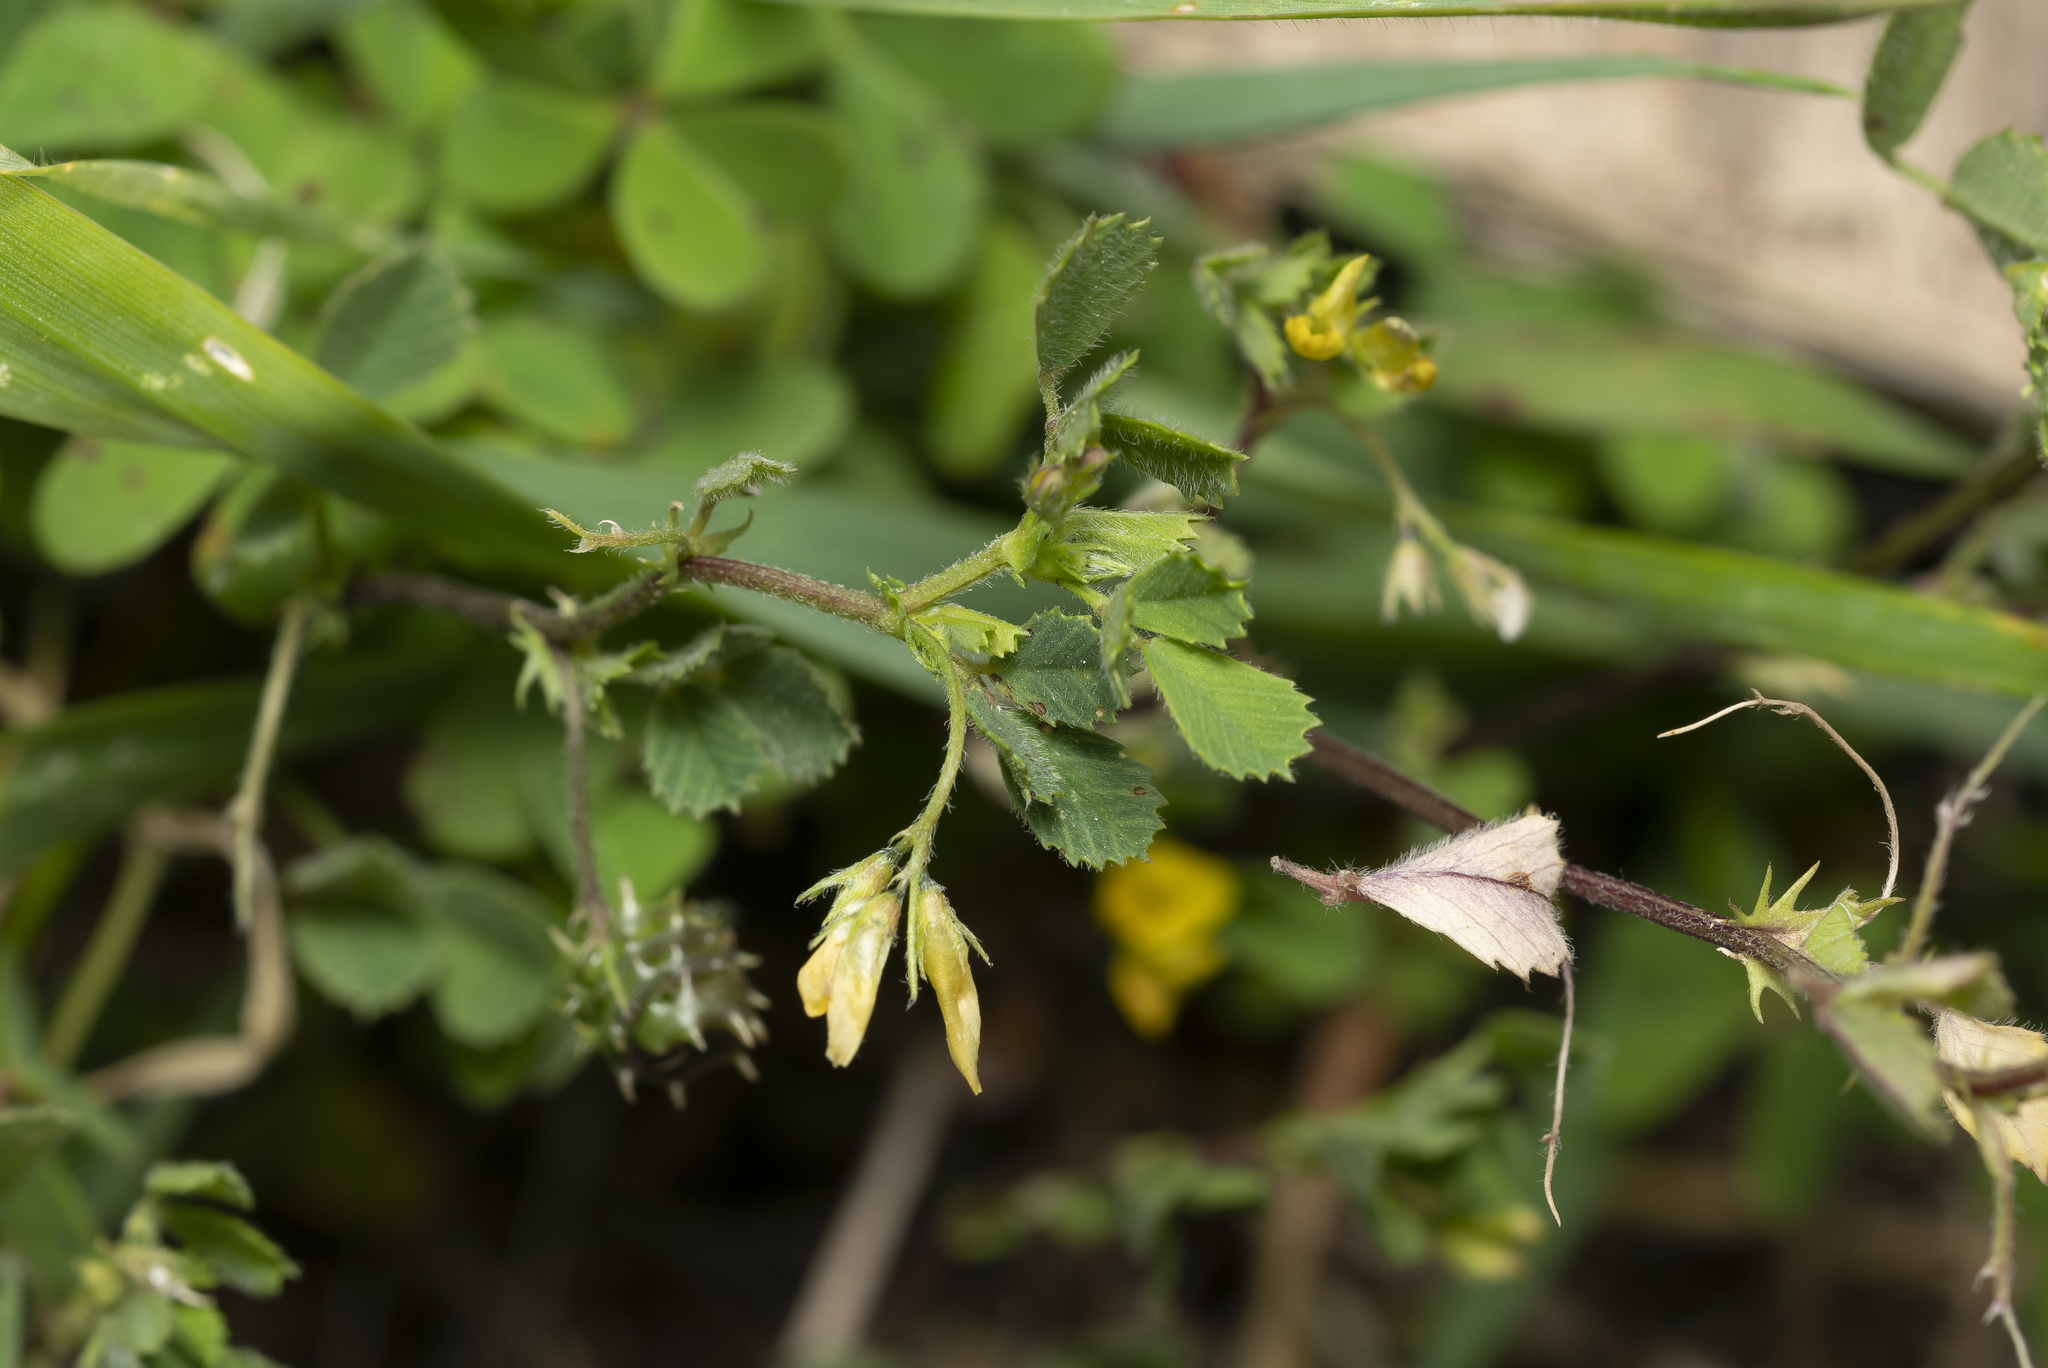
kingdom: Plantae
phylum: Tracheophyta
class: Magnoliopsida
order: Fabales
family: Fabaceae
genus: Medicago
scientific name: Medicago
